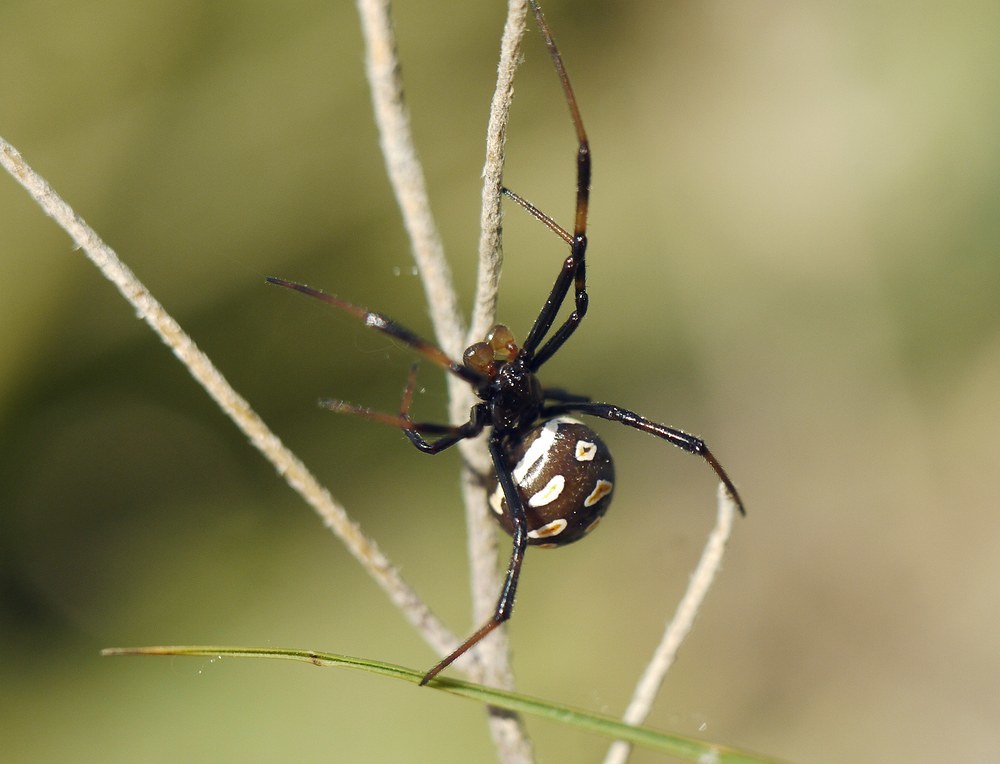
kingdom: Animalia
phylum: Arthropoda
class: Arachnida
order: Araneae
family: Theridiidae
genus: Latrodectus
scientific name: Latrodectus tredecimguttatus
